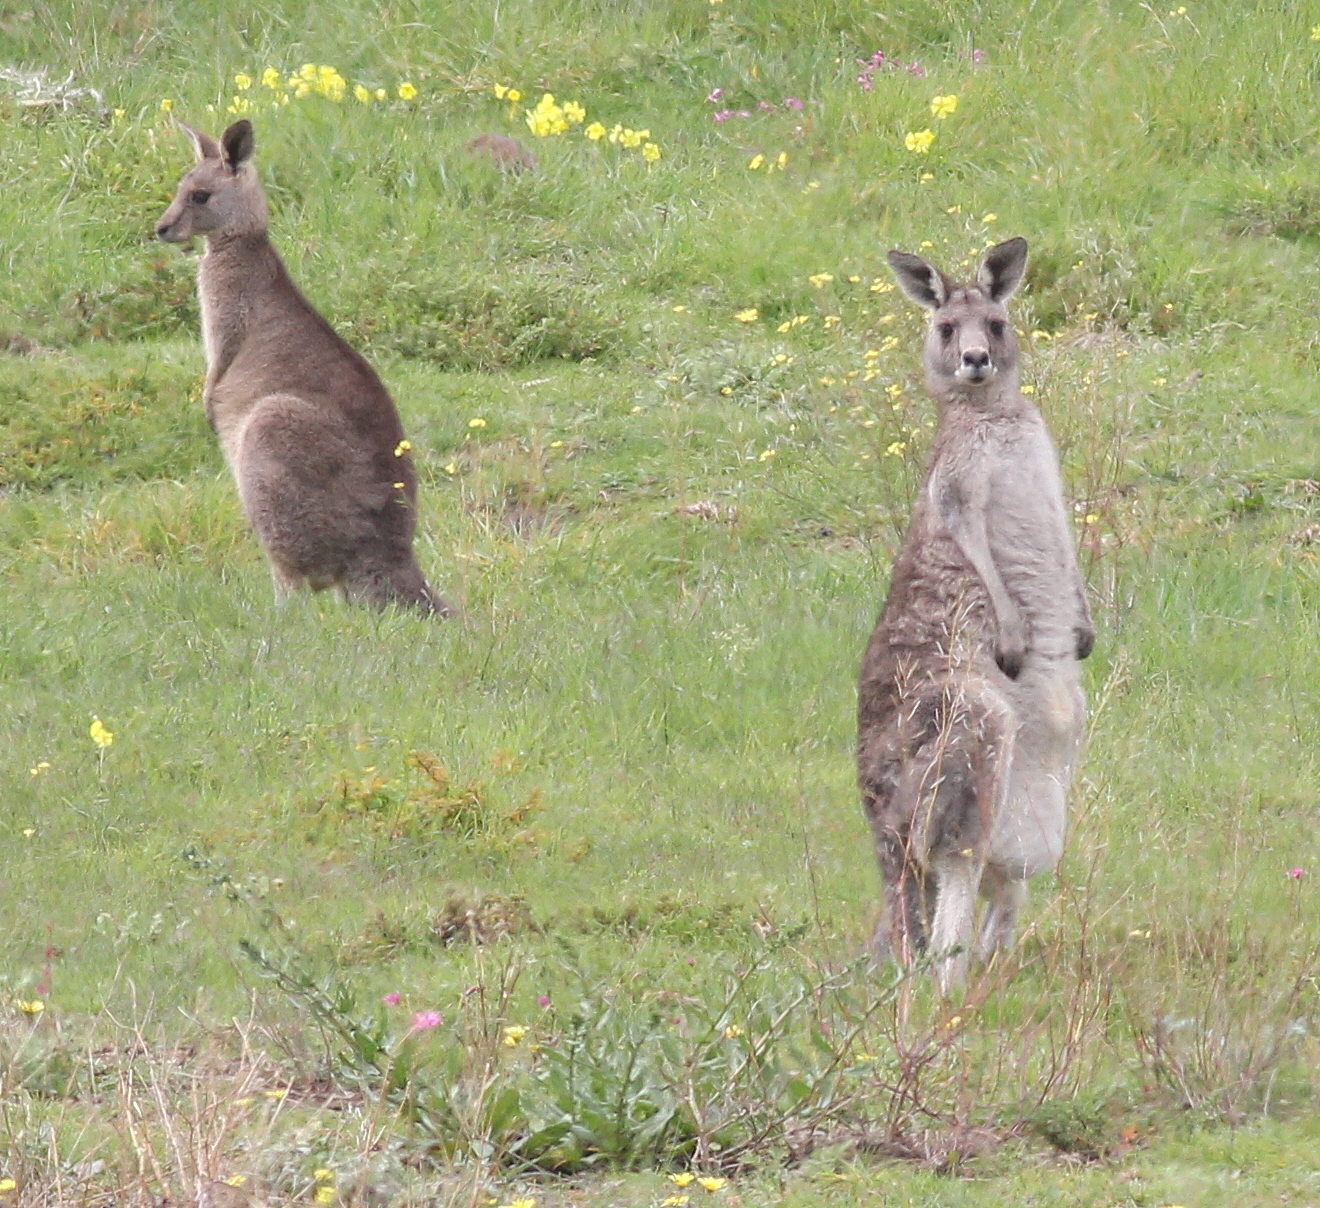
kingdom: Animalia
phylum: Chordata
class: Mammalia
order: Diprotodontia
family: Macropodidae
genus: Macropus
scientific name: Macropus giganteus
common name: Eastern grey kangaroo
